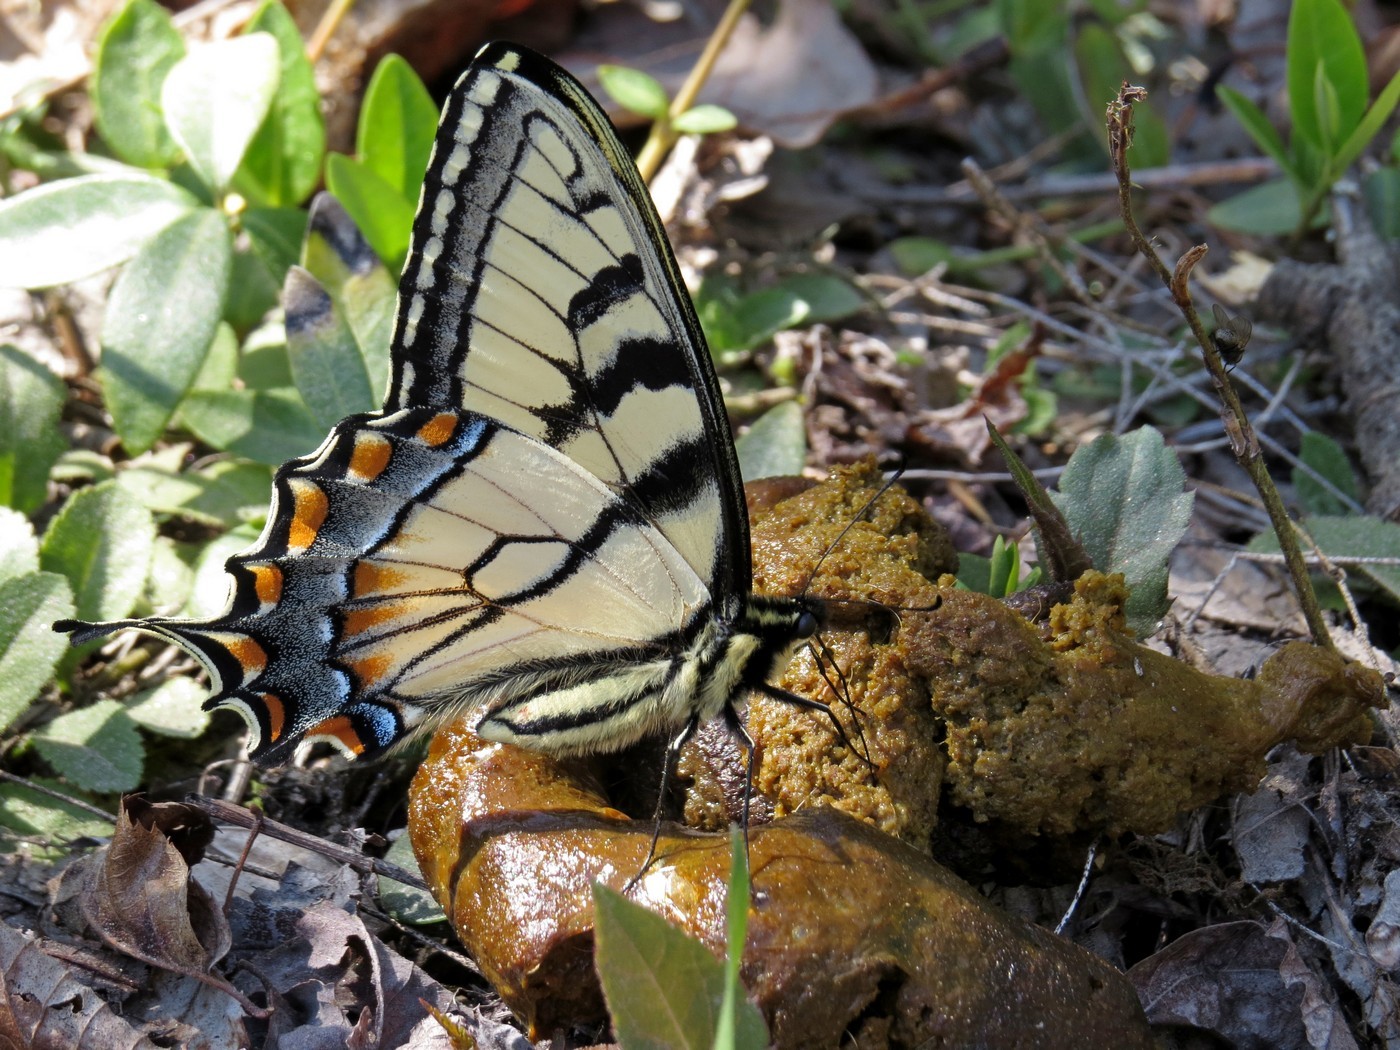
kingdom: Animalia
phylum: Arthropoda
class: Insecta
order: Lepidoptera
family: Papilionidae
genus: Papilio
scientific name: Papilio glaucus
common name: Tiger swallowtail
